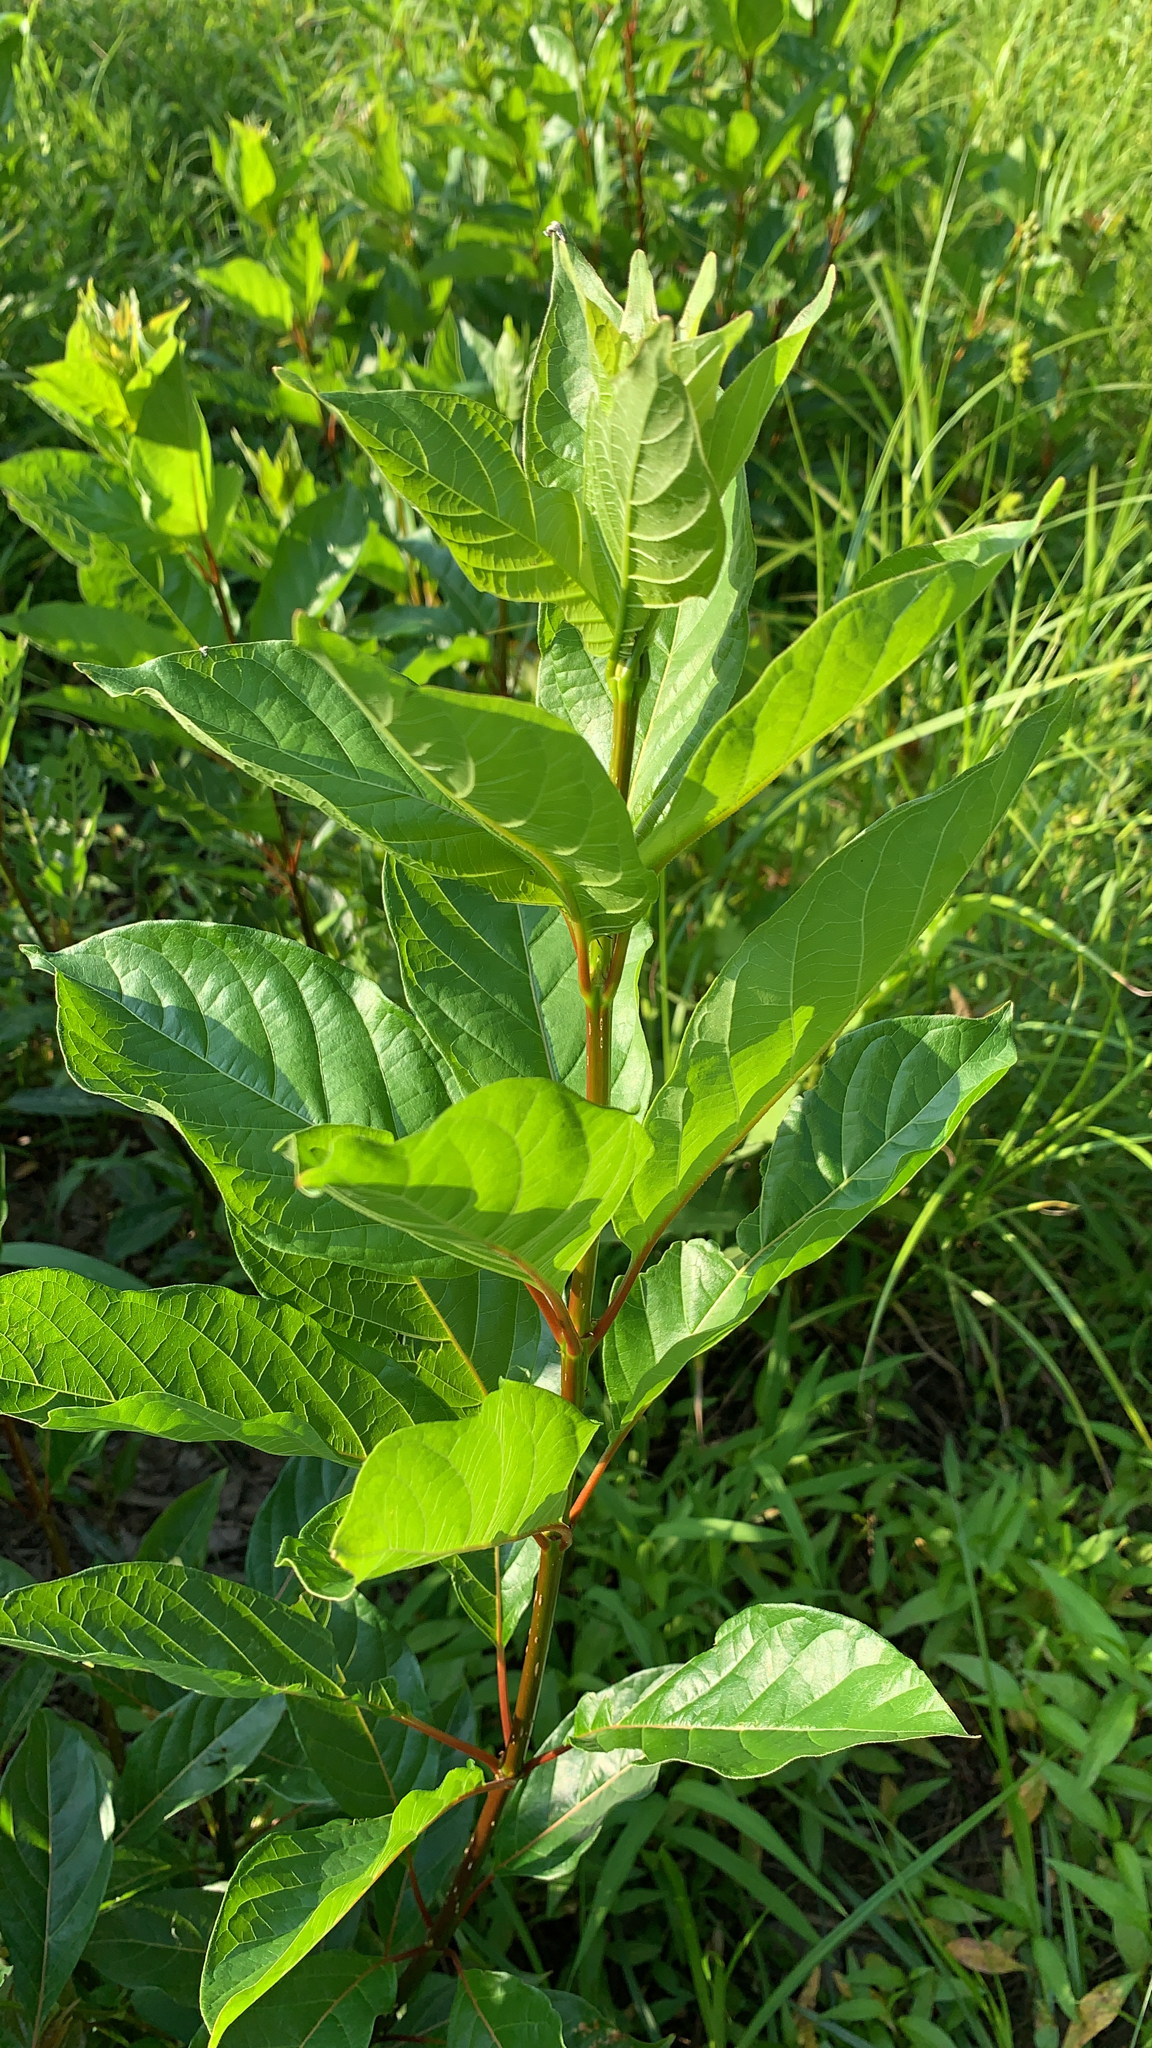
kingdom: Plantae
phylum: Tracheophyta
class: Magnoliopsida
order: Gentianales
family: Rubiaceae
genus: Cephalanthus
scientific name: Cephalanthus occidentalis
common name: Button-willow
